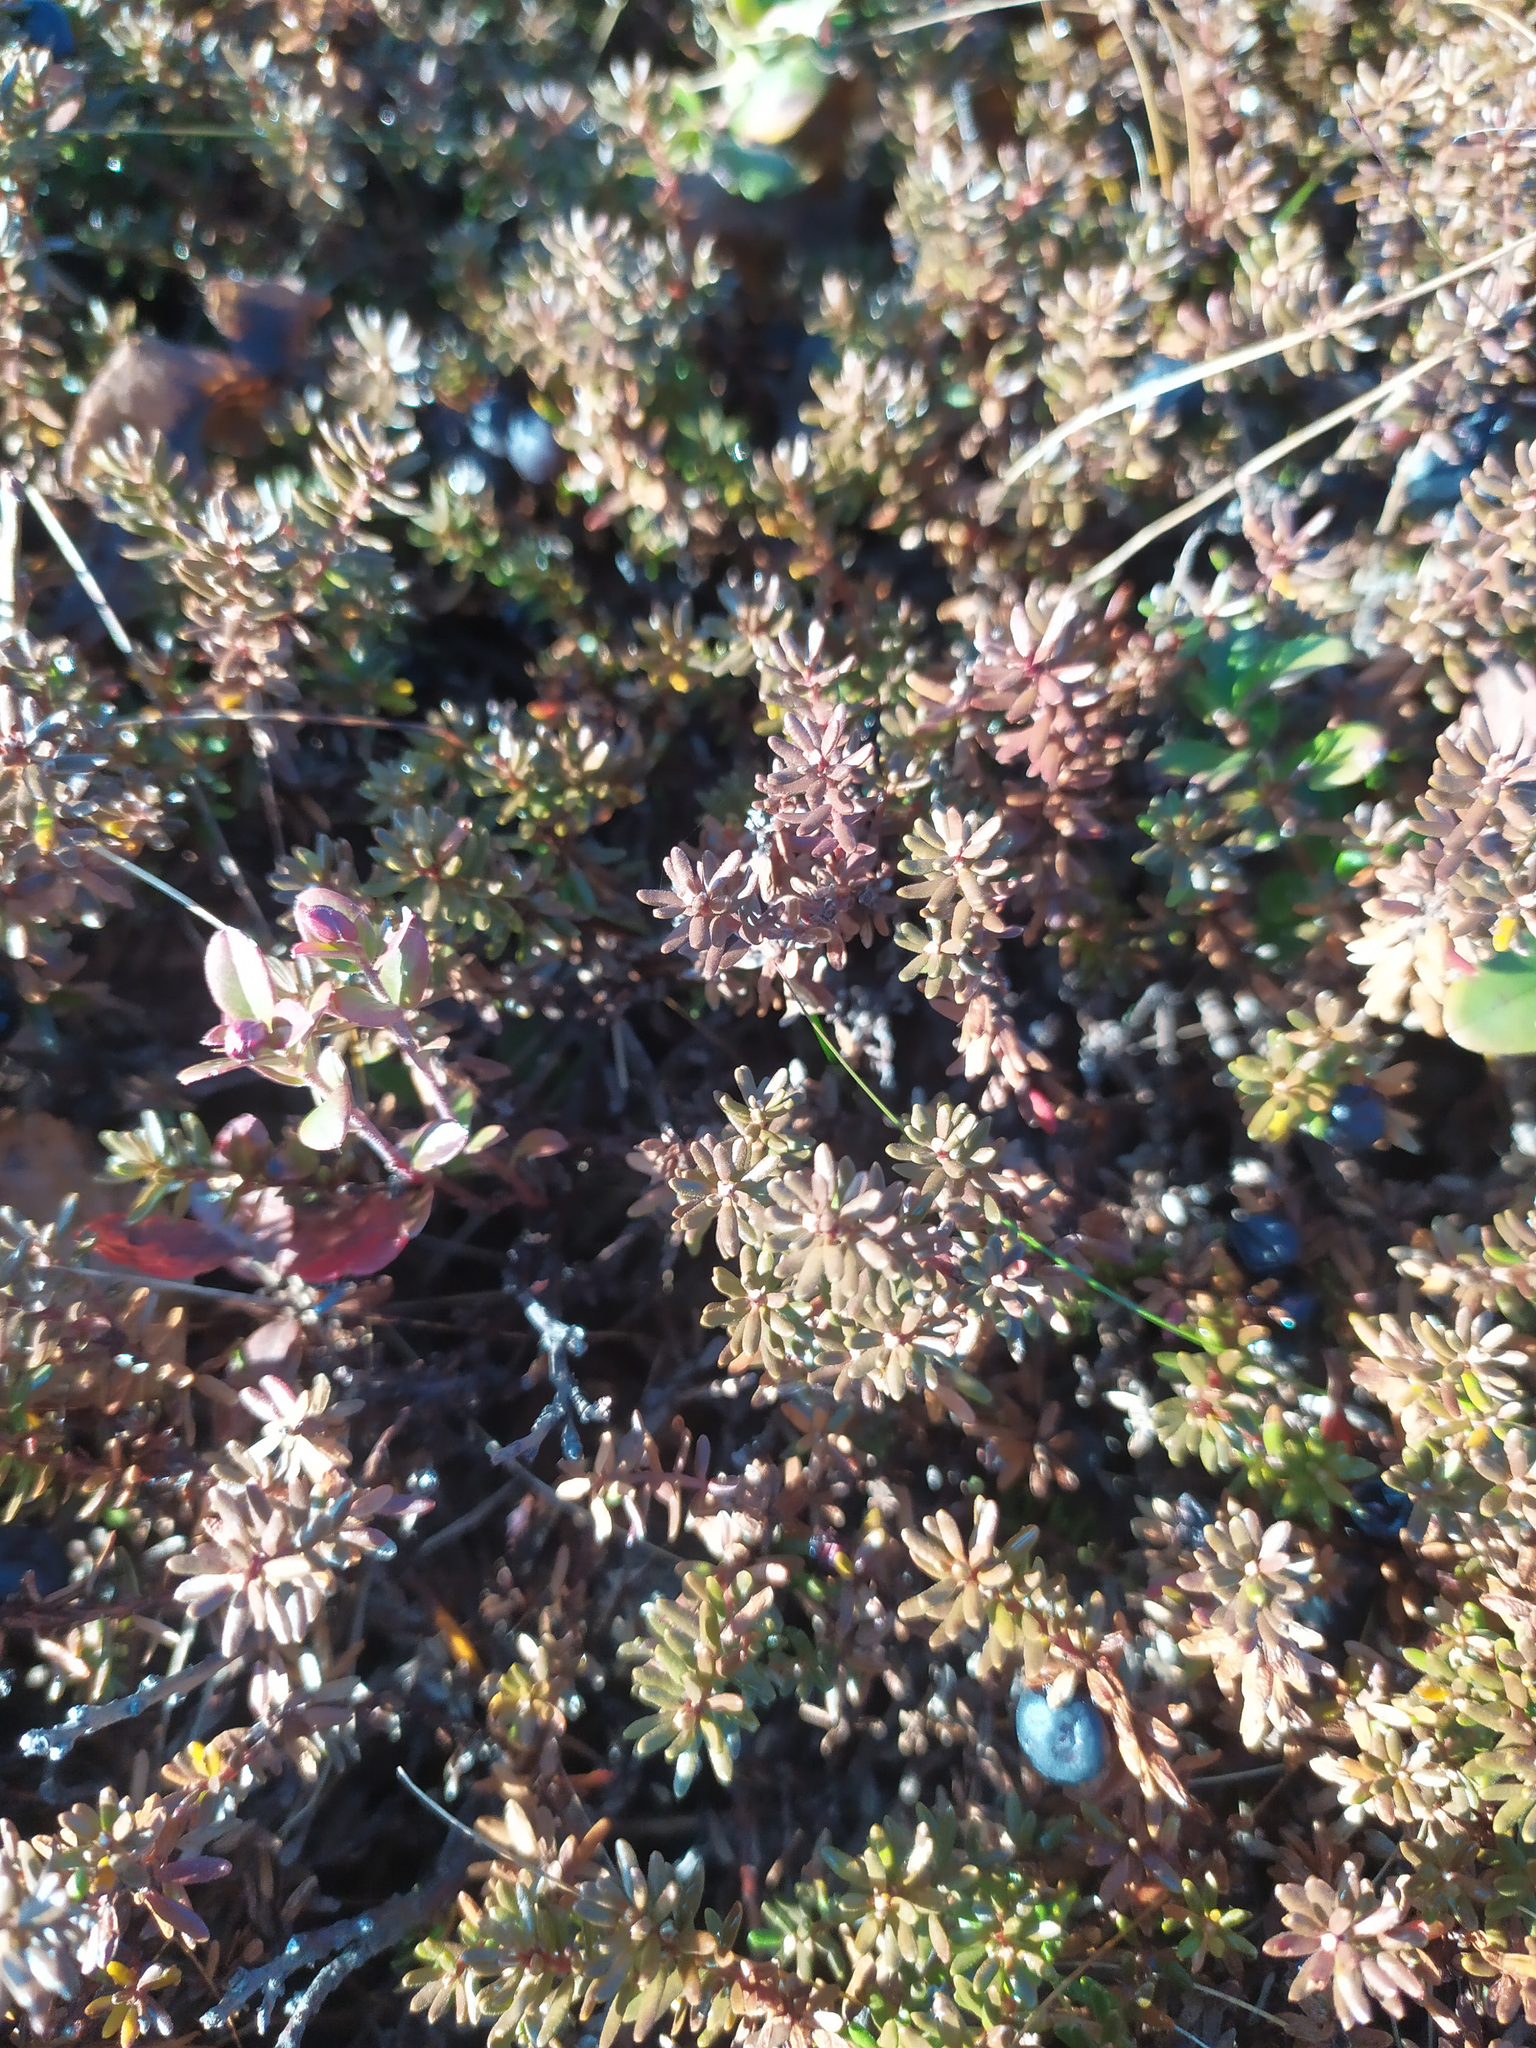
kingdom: Plantae
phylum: Tracheophyta
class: Magnoliopsida
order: Ericales
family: Ericaceae
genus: Empetrum
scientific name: Empetrum nigrum
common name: Black crowberry
